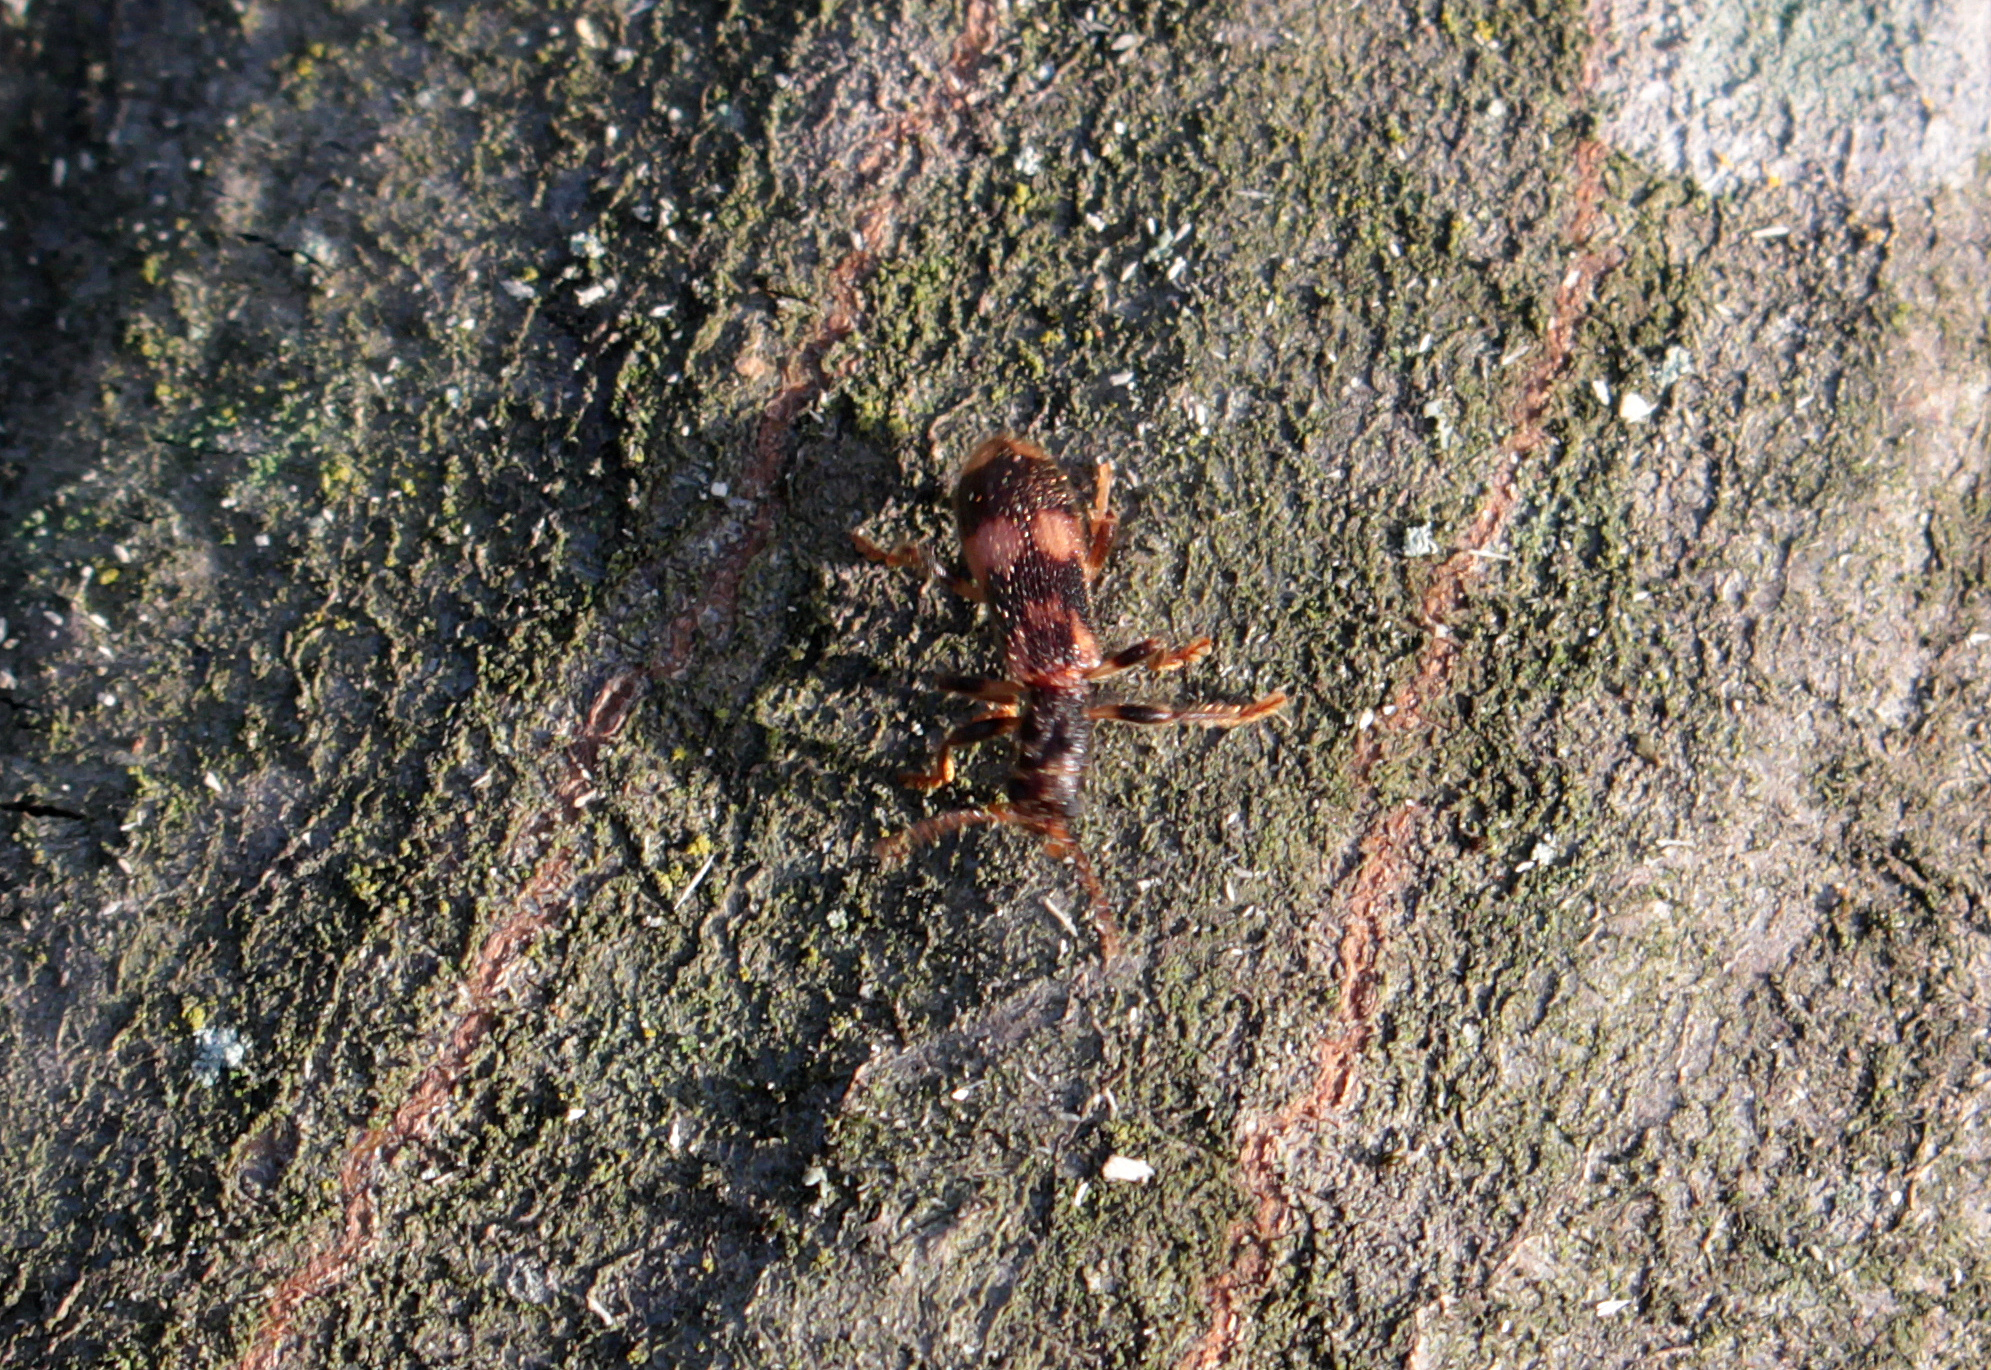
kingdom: Animalia
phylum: Arthropoda
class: Insecta
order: Coleoptera
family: Cleridae
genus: Opilo
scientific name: Opilo mollis
